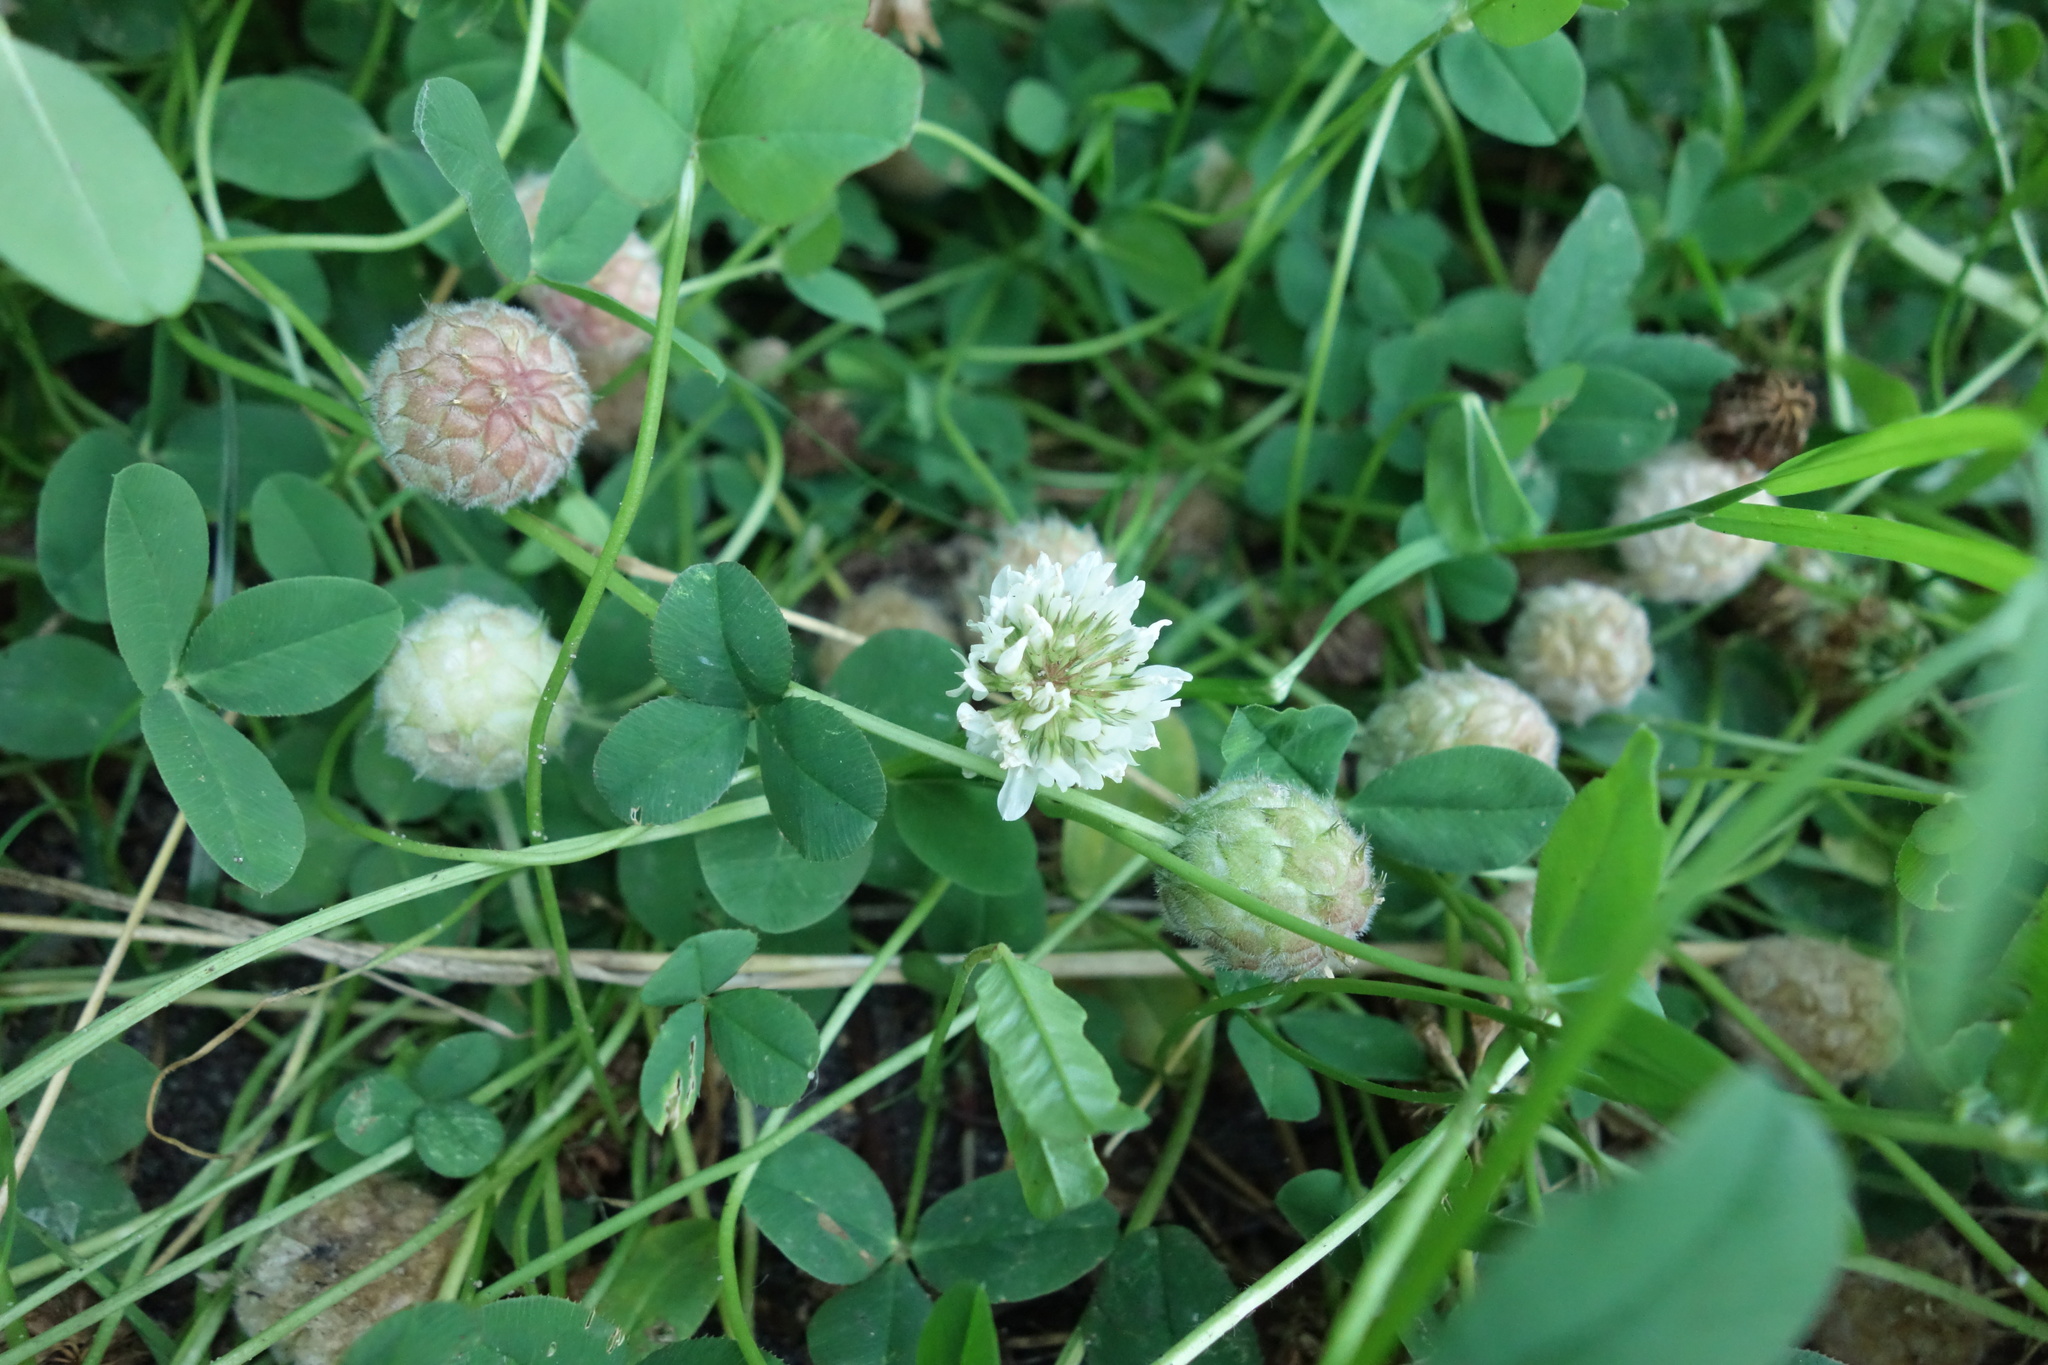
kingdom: Plantae
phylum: Tracheophyta
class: Magnoliopsida
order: Fabales
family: Fabaceae
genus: Trifolium
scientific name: Trifolium fragiferum
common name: Strawberry clover
